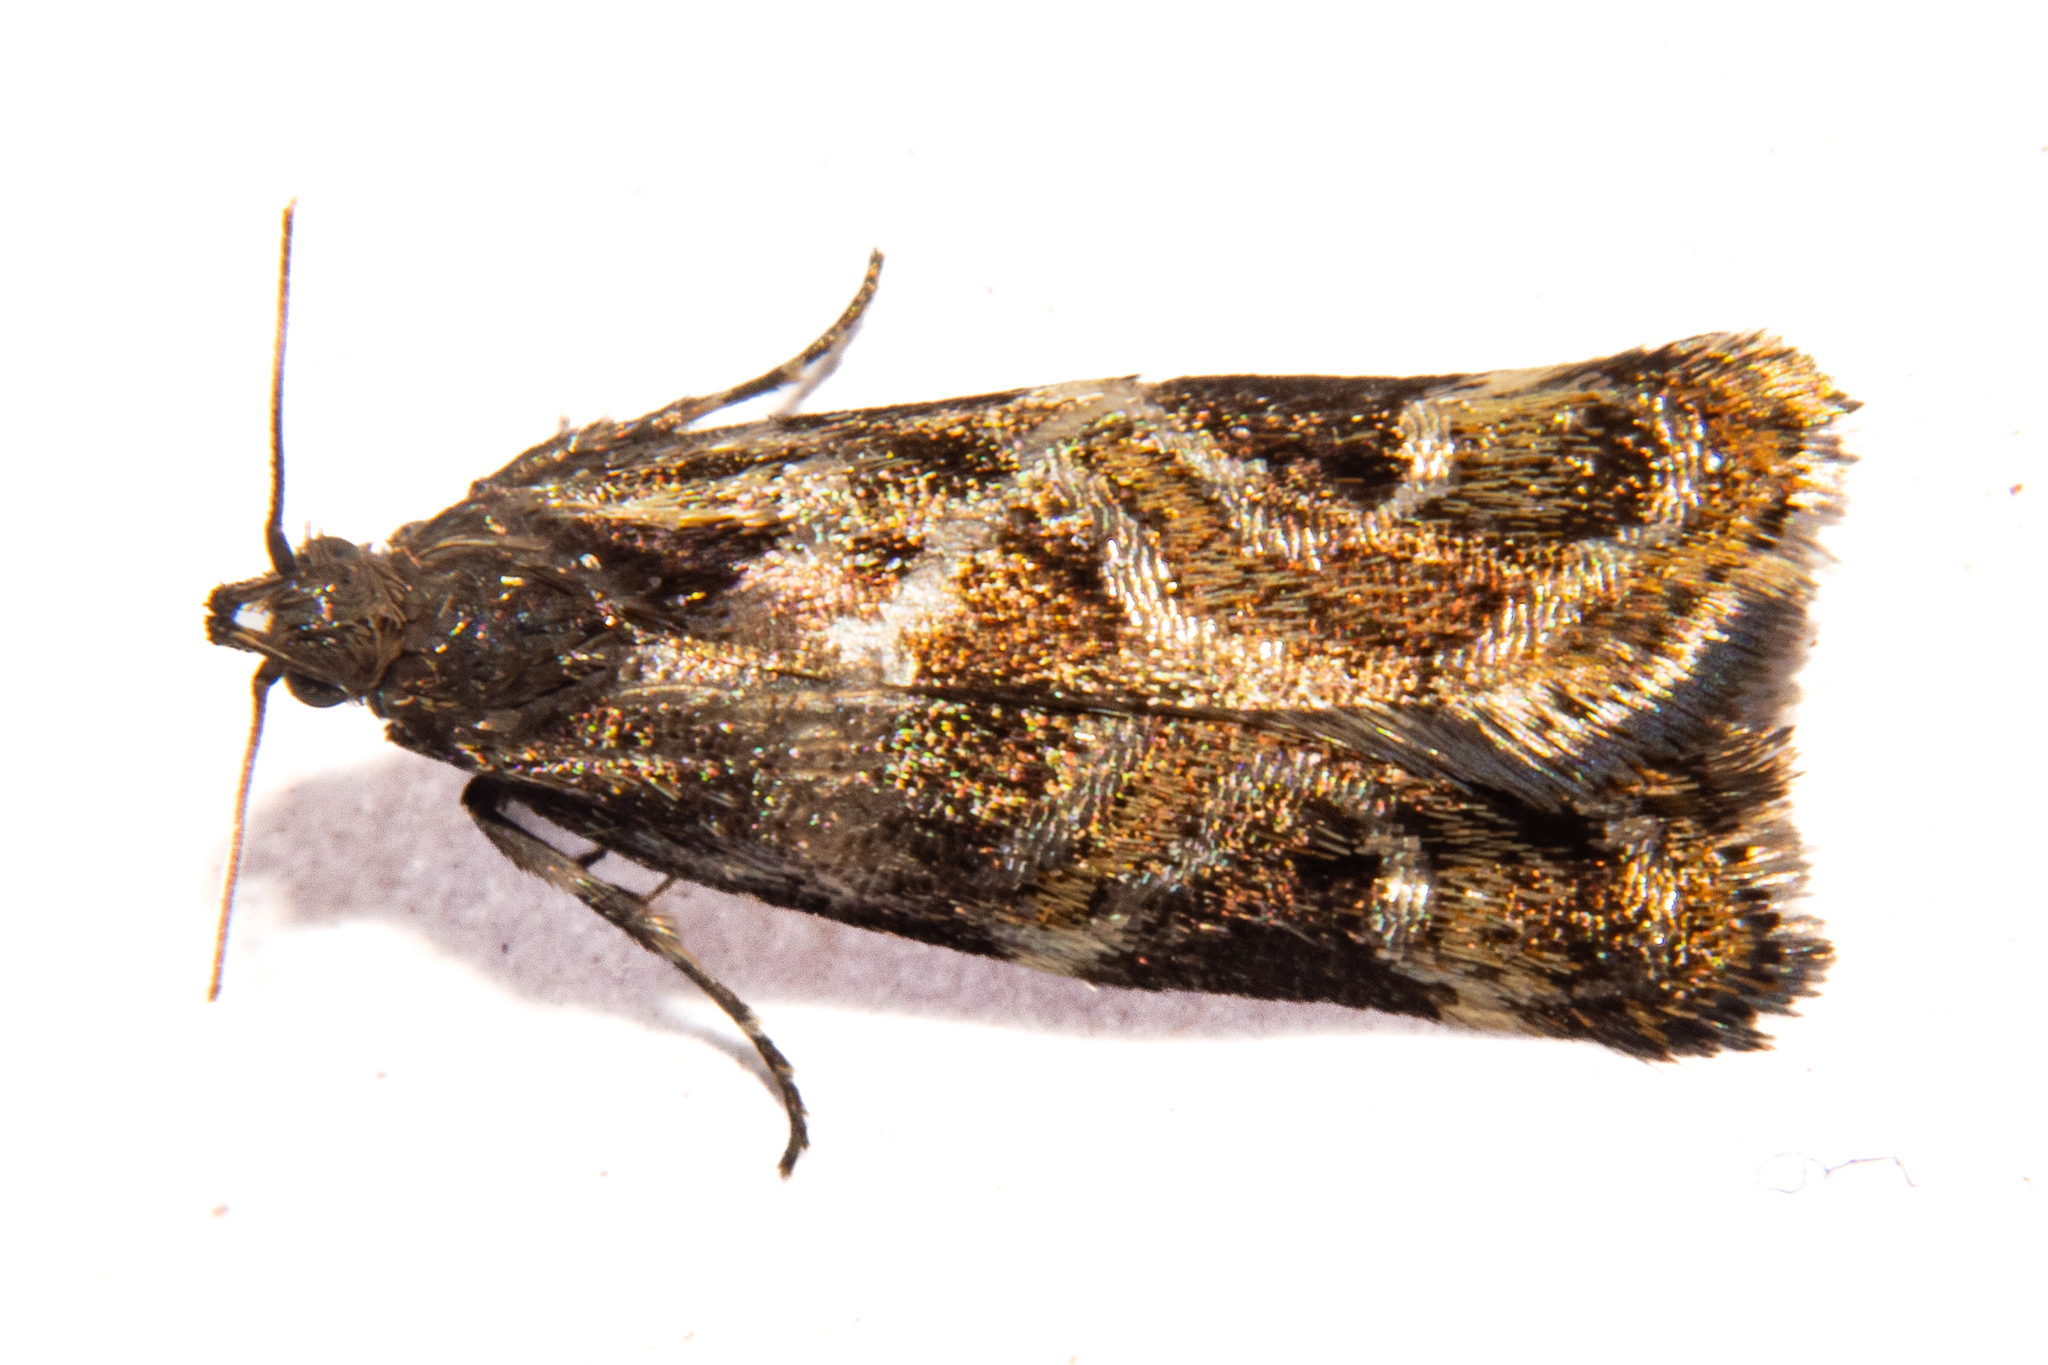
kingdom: Animalia
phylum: Arthropoda
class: Insecta
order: Lepidoptera
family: Oecophoridae
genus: Hierodoris
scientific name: Hierodoris s-fractum
